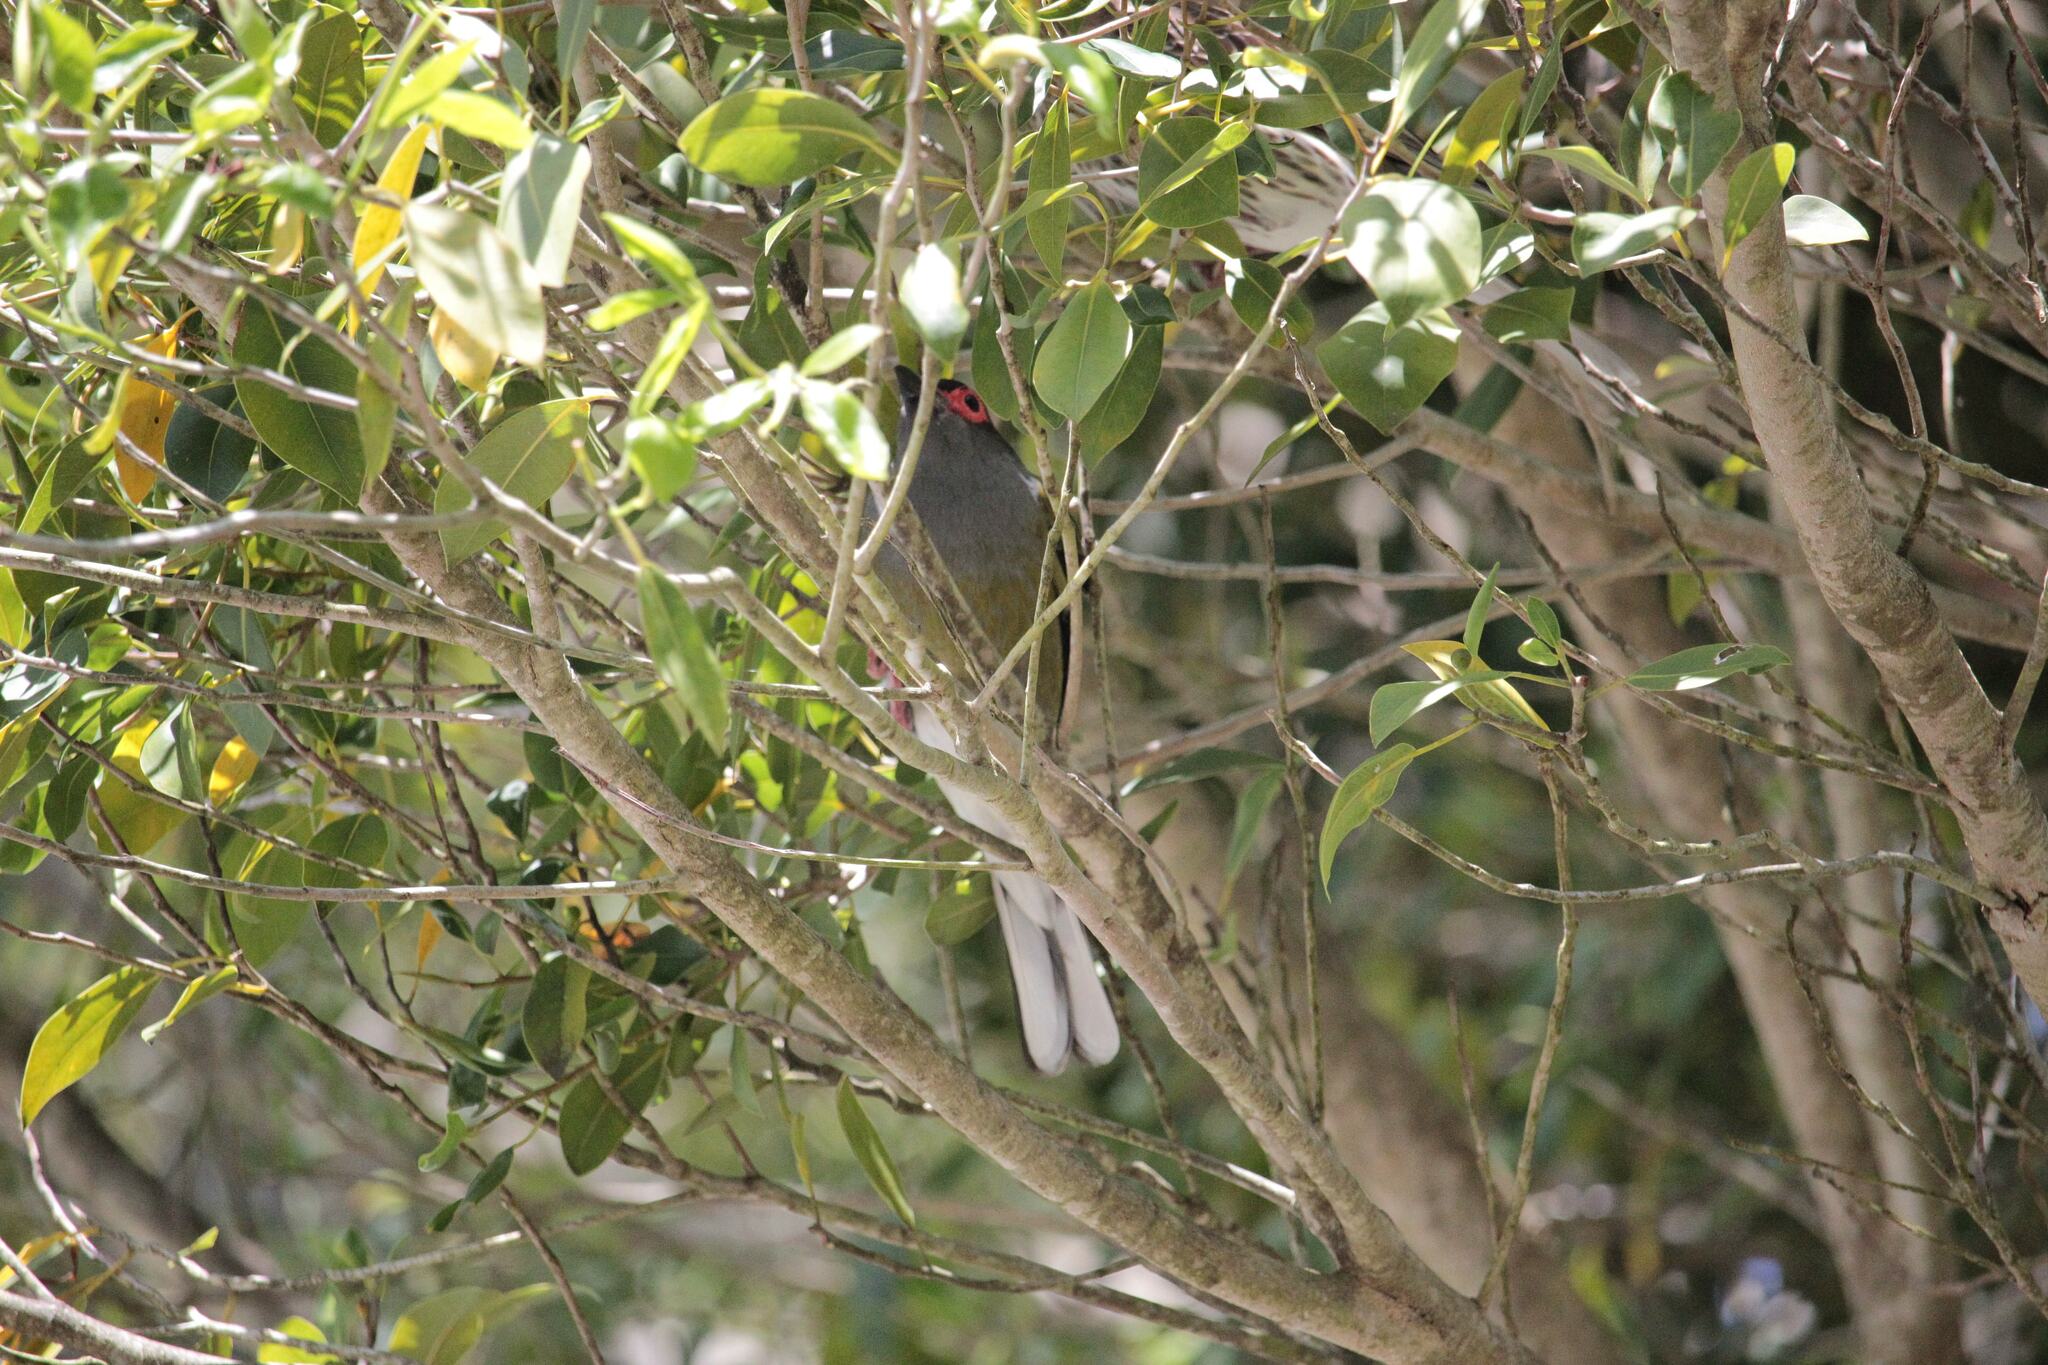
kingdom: Animalia
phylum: Chordata
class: Aves
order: Passeriformes
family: Oriolidae
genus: Sphecotheres
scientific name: Sphecotheres vieilloti
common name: Australasian figbird
